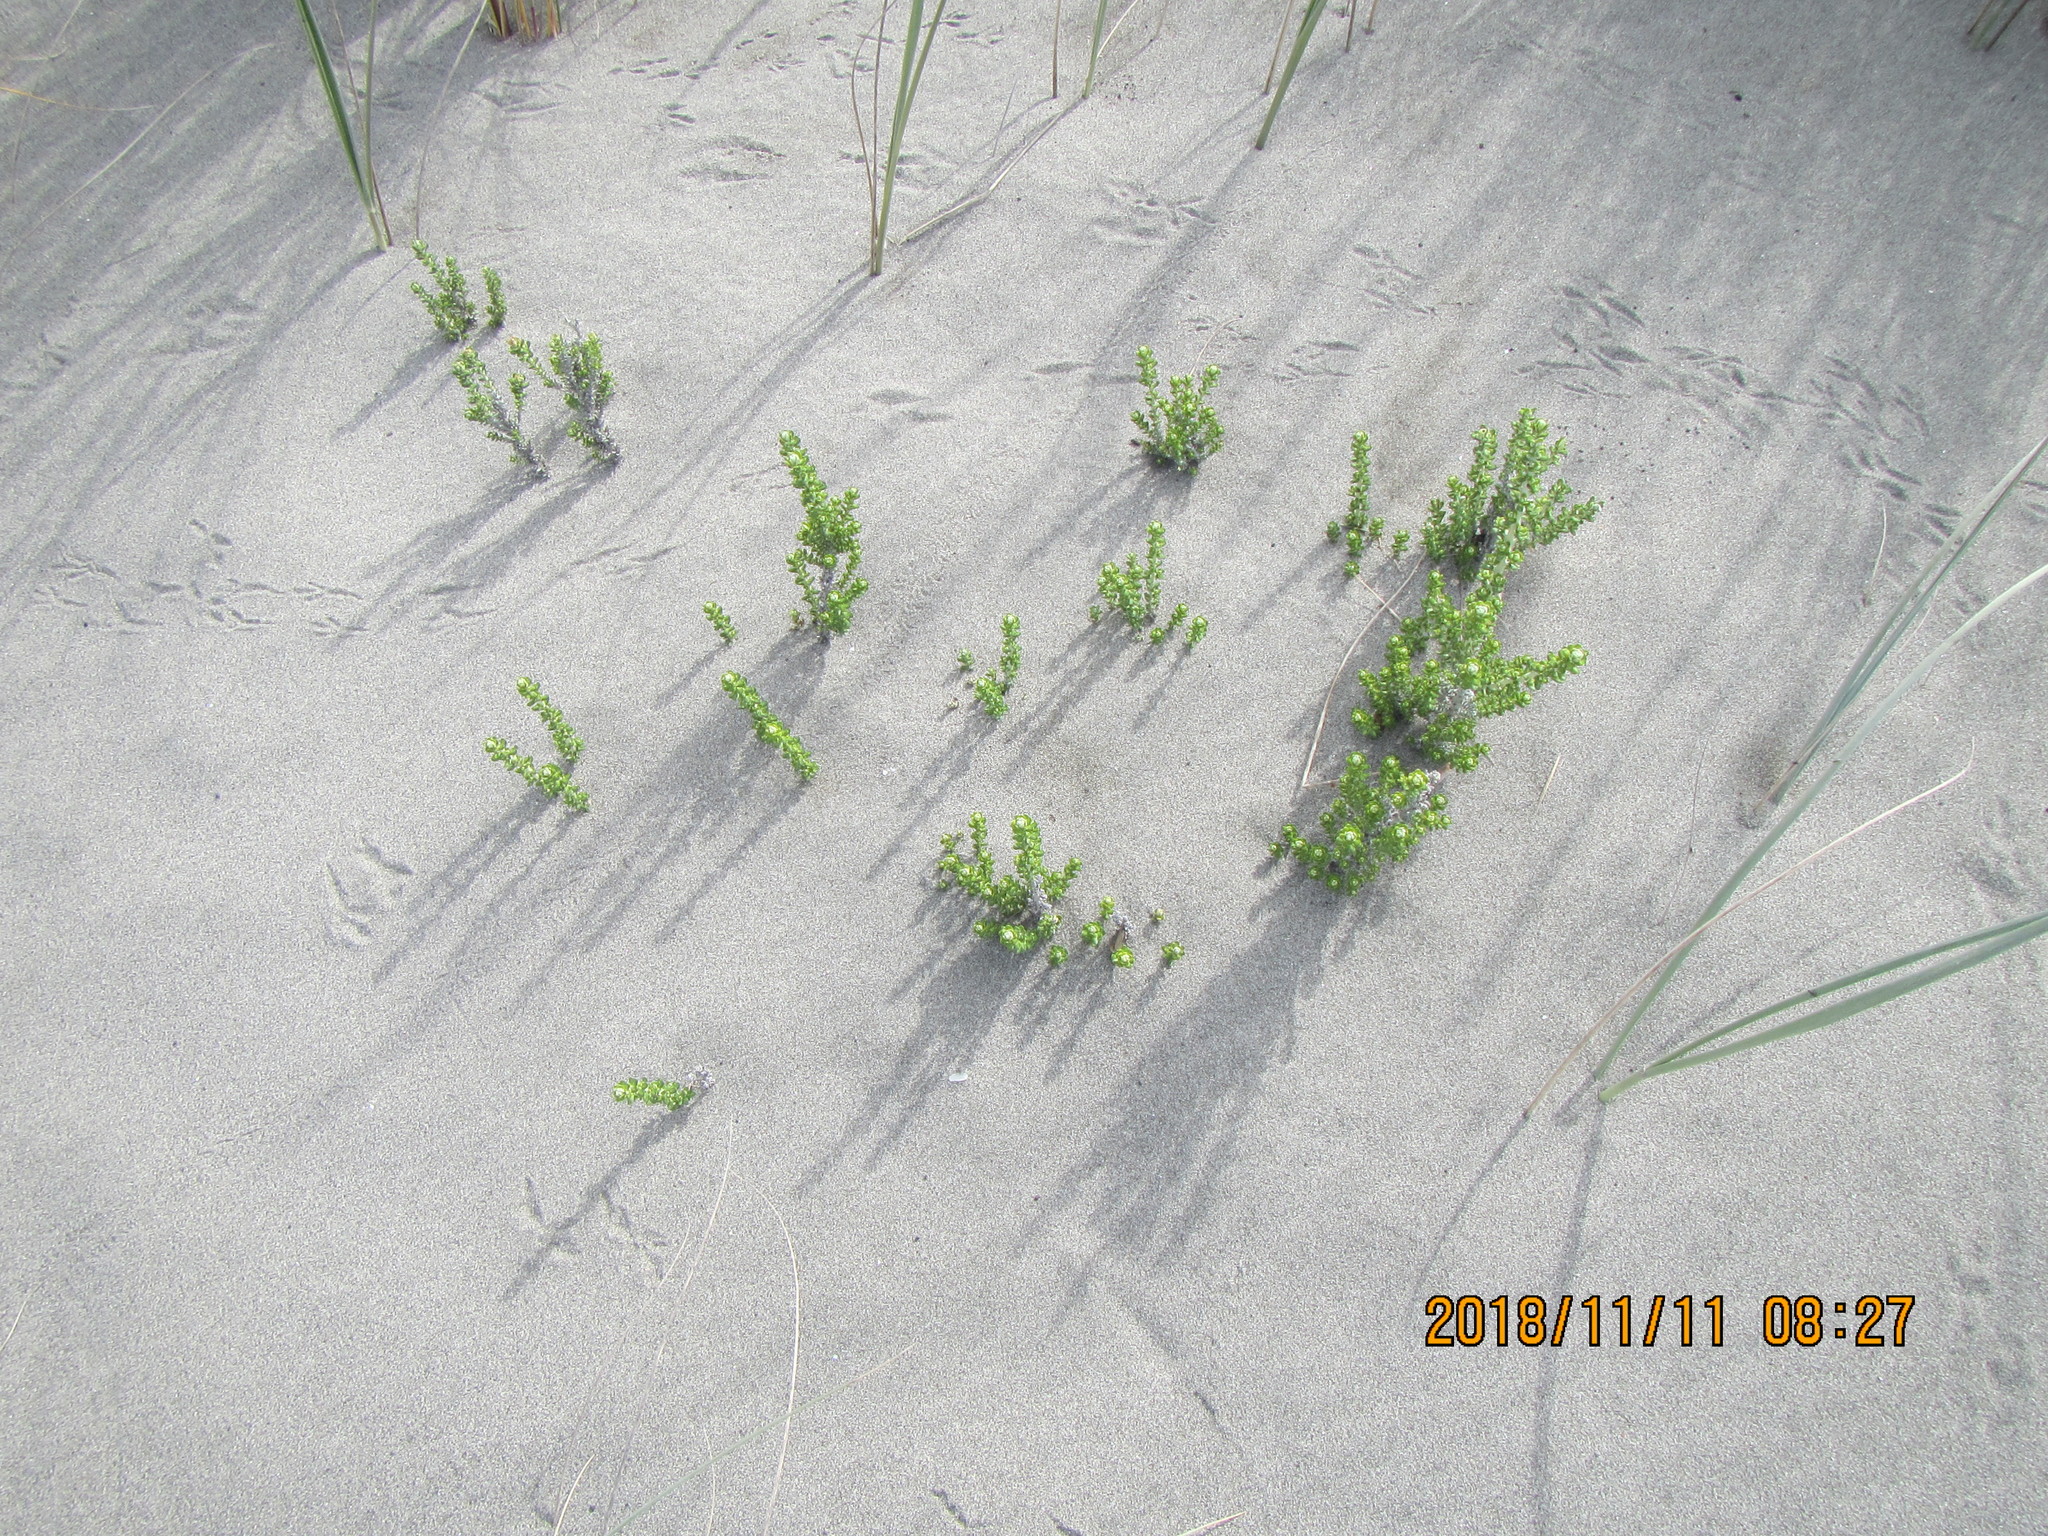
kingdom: Plantae
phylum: Tracheophyta
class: Magnoliopsida
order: Asterales
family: Asteraceae
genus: Ozothamnus
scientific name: Ozothamnus leptophyllus
